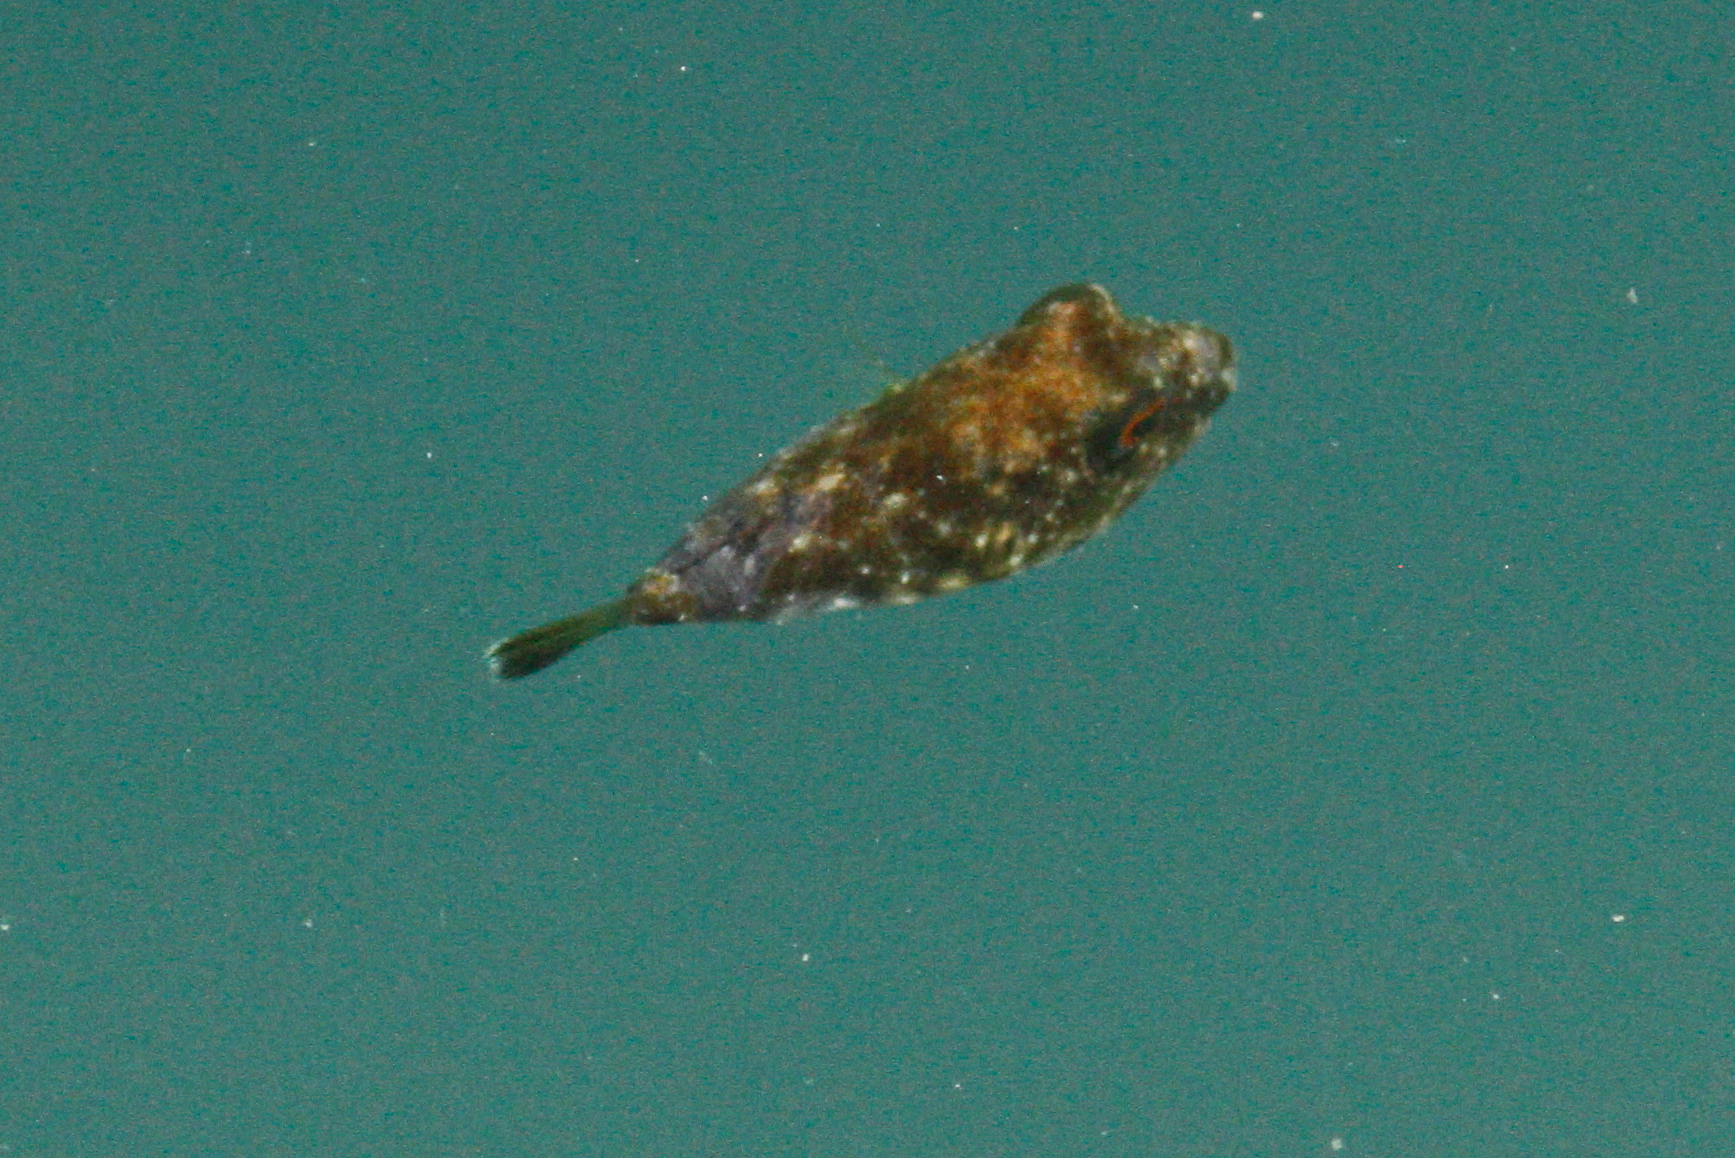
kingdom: Animalia
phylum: Chordata
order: Tetraodontiformes
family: Tetraodontidae
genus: Sphoeroides
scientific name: Sphoeroides lobatus
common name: Longnose puffer
